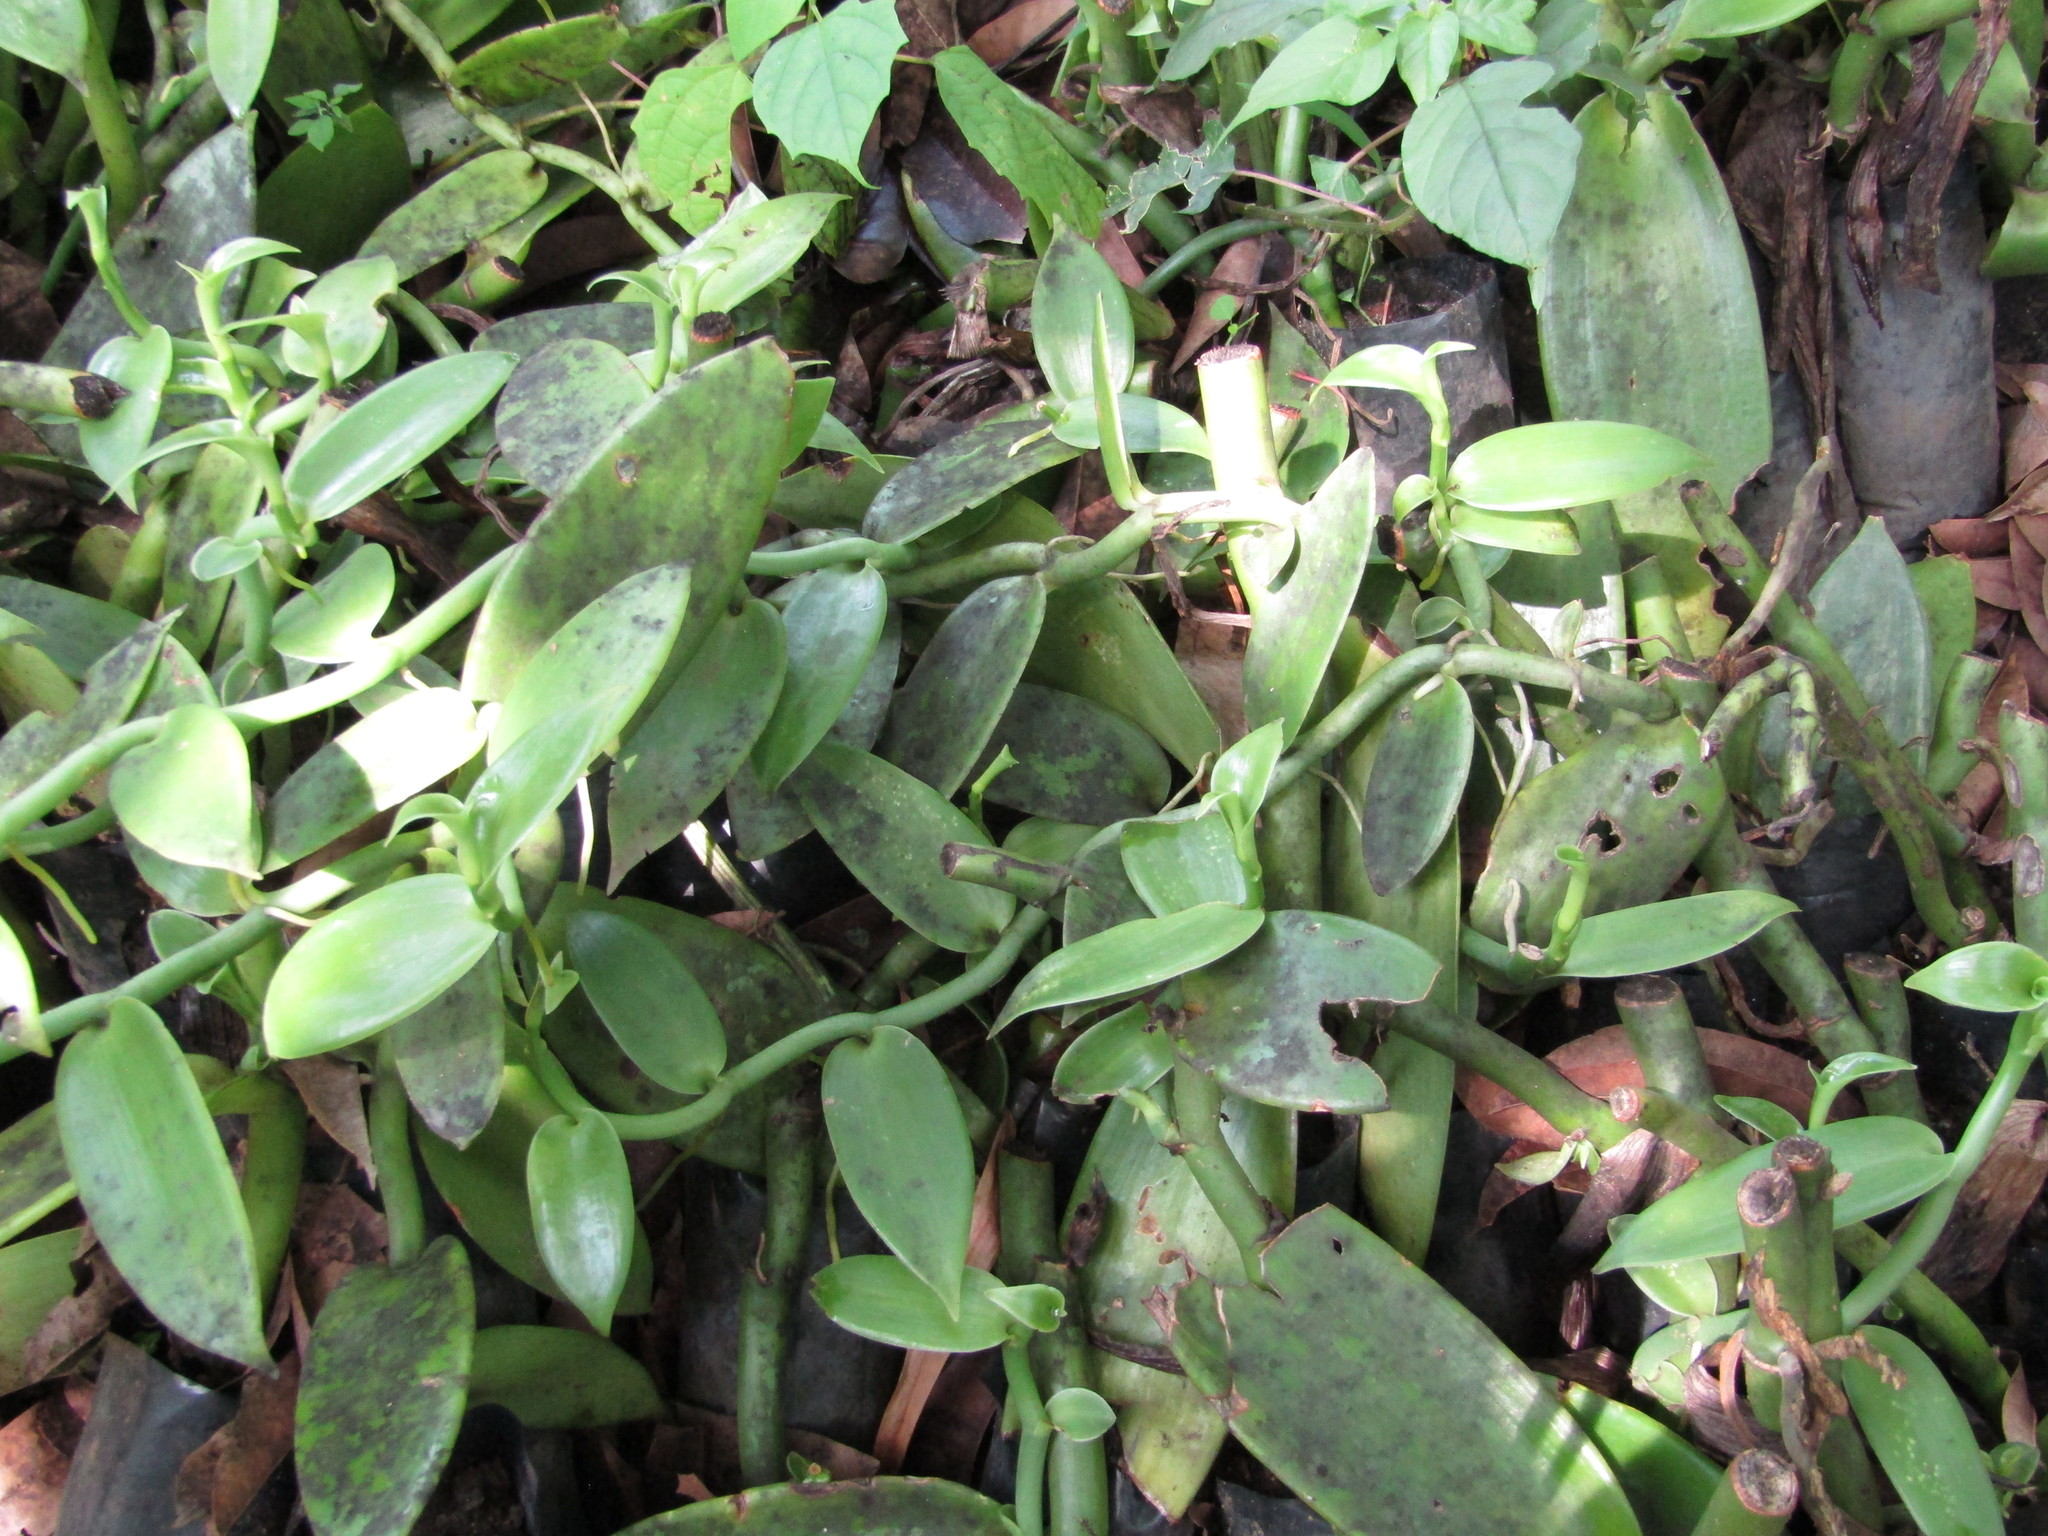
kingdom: Plantae
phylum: Tracheophyta
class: Liliopsida
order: Asparagales
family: Orchidaceae
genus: Vanilla
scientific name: Vanilla planifolia
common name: Vanilla
